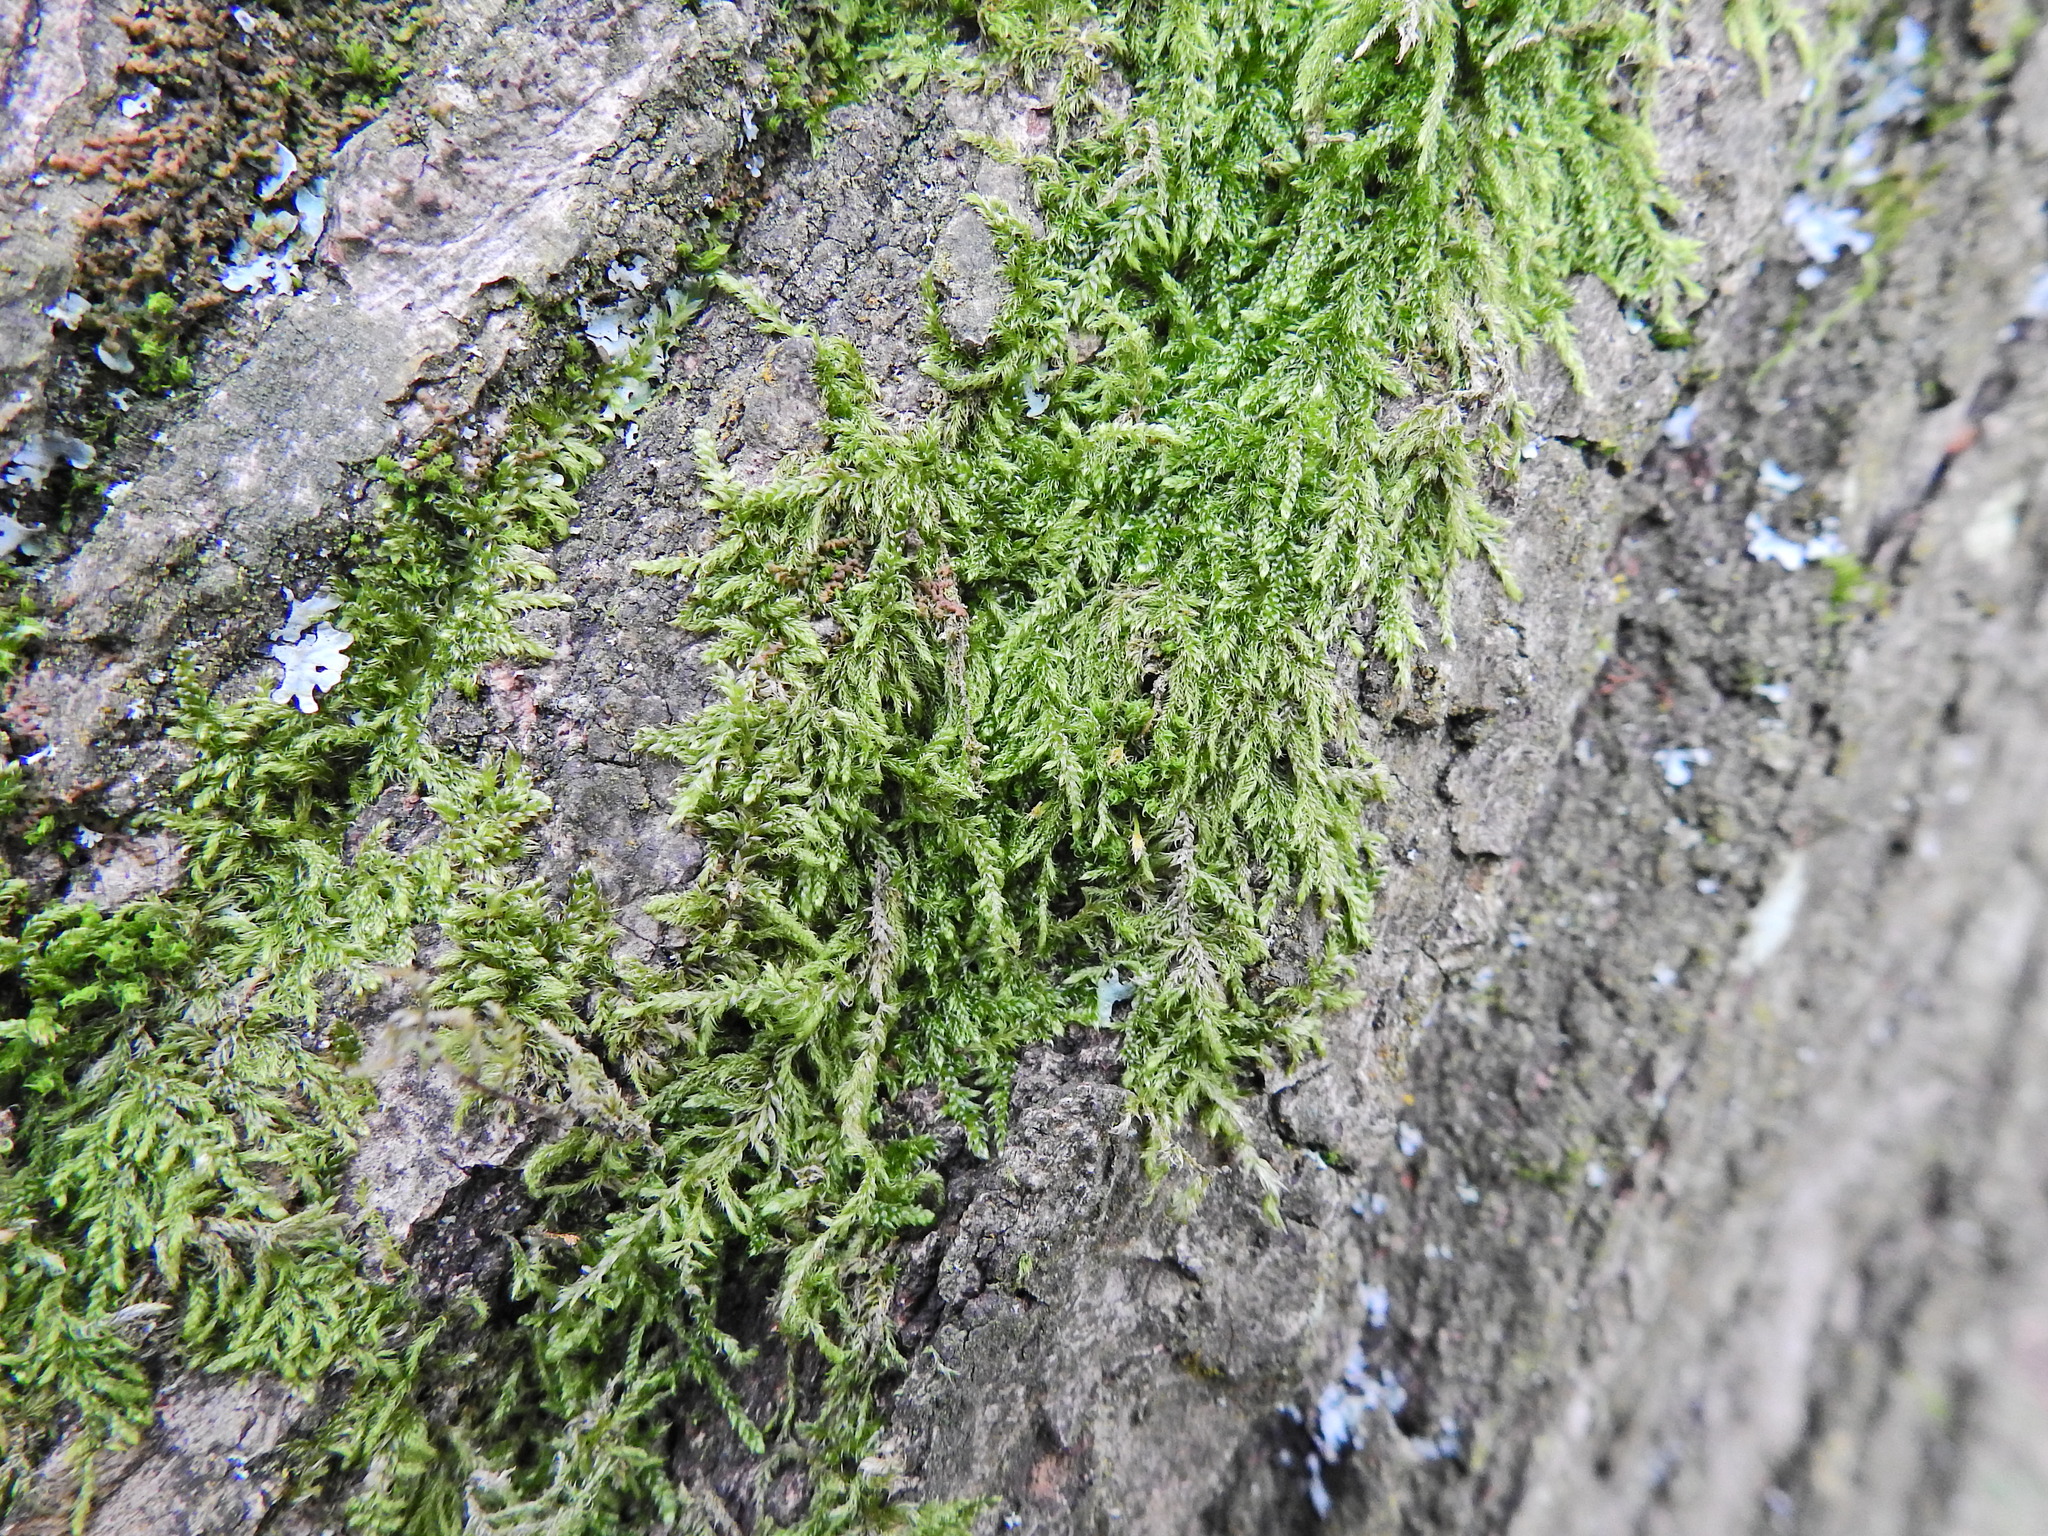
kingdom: Plantae
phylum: Bryophyta
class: Bryopsida
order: Hypnales
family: Hypnaceae
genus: Hypnum
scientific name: Hypnum cupressiforme
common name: Cypress-leaved plait-moss
